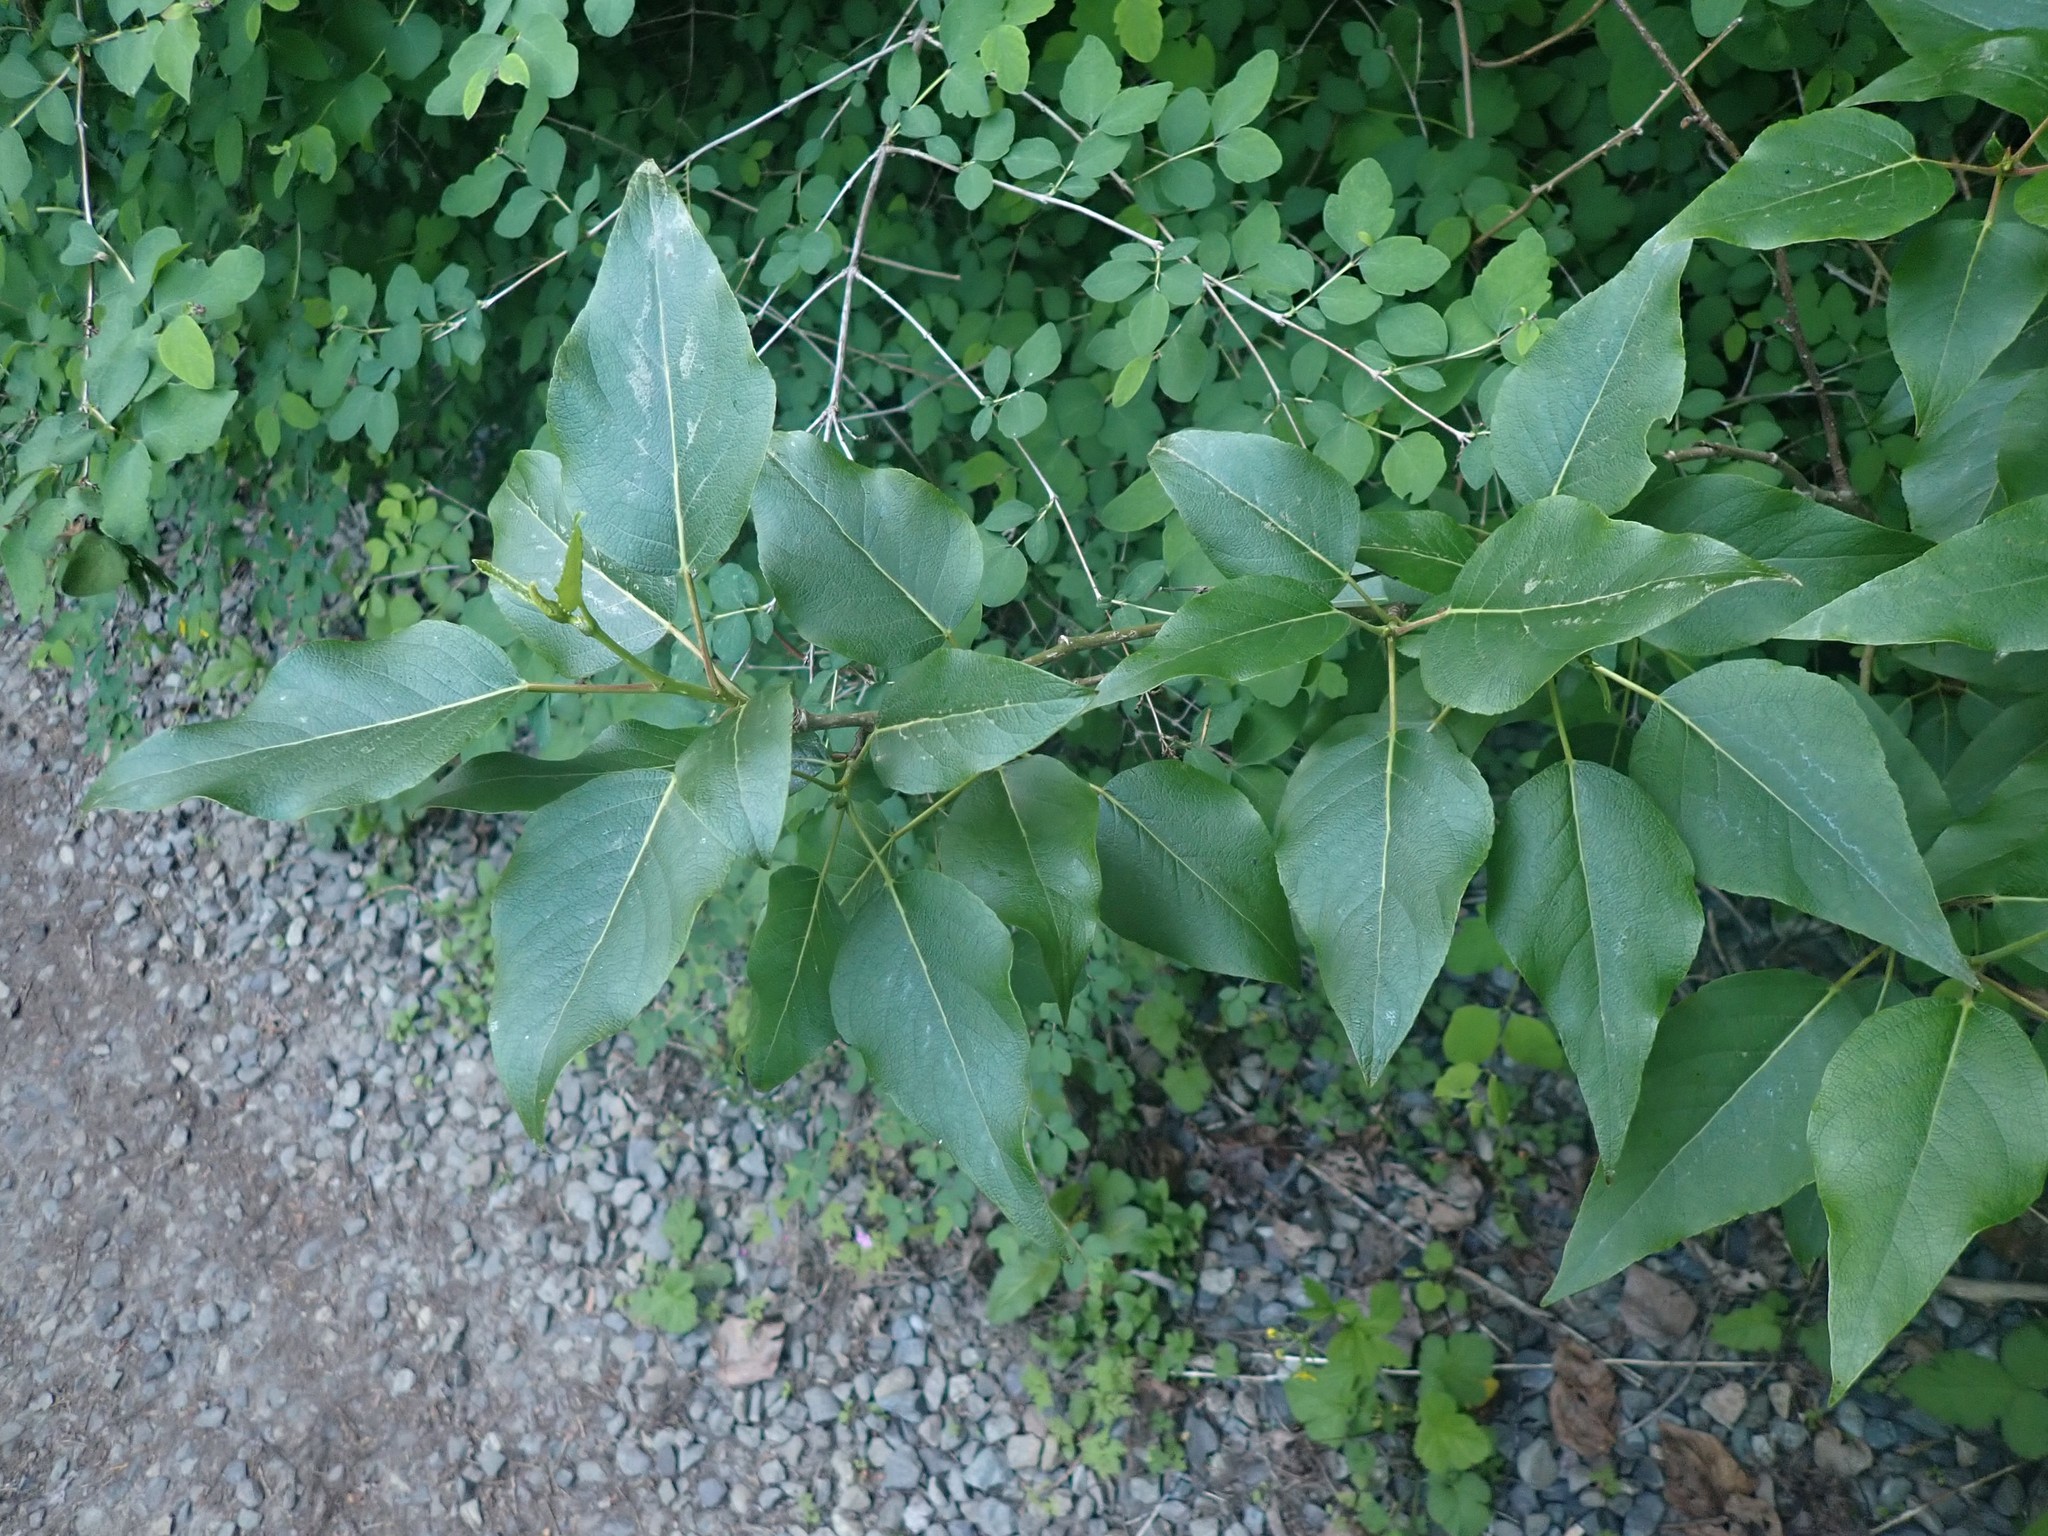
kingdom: Plantae
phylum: Tracheophyta
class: Magnoliopsida
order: Malpighiales
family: Salicaceae
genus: Populus
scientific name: Populus trichocarpa
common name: Black cottonwood
